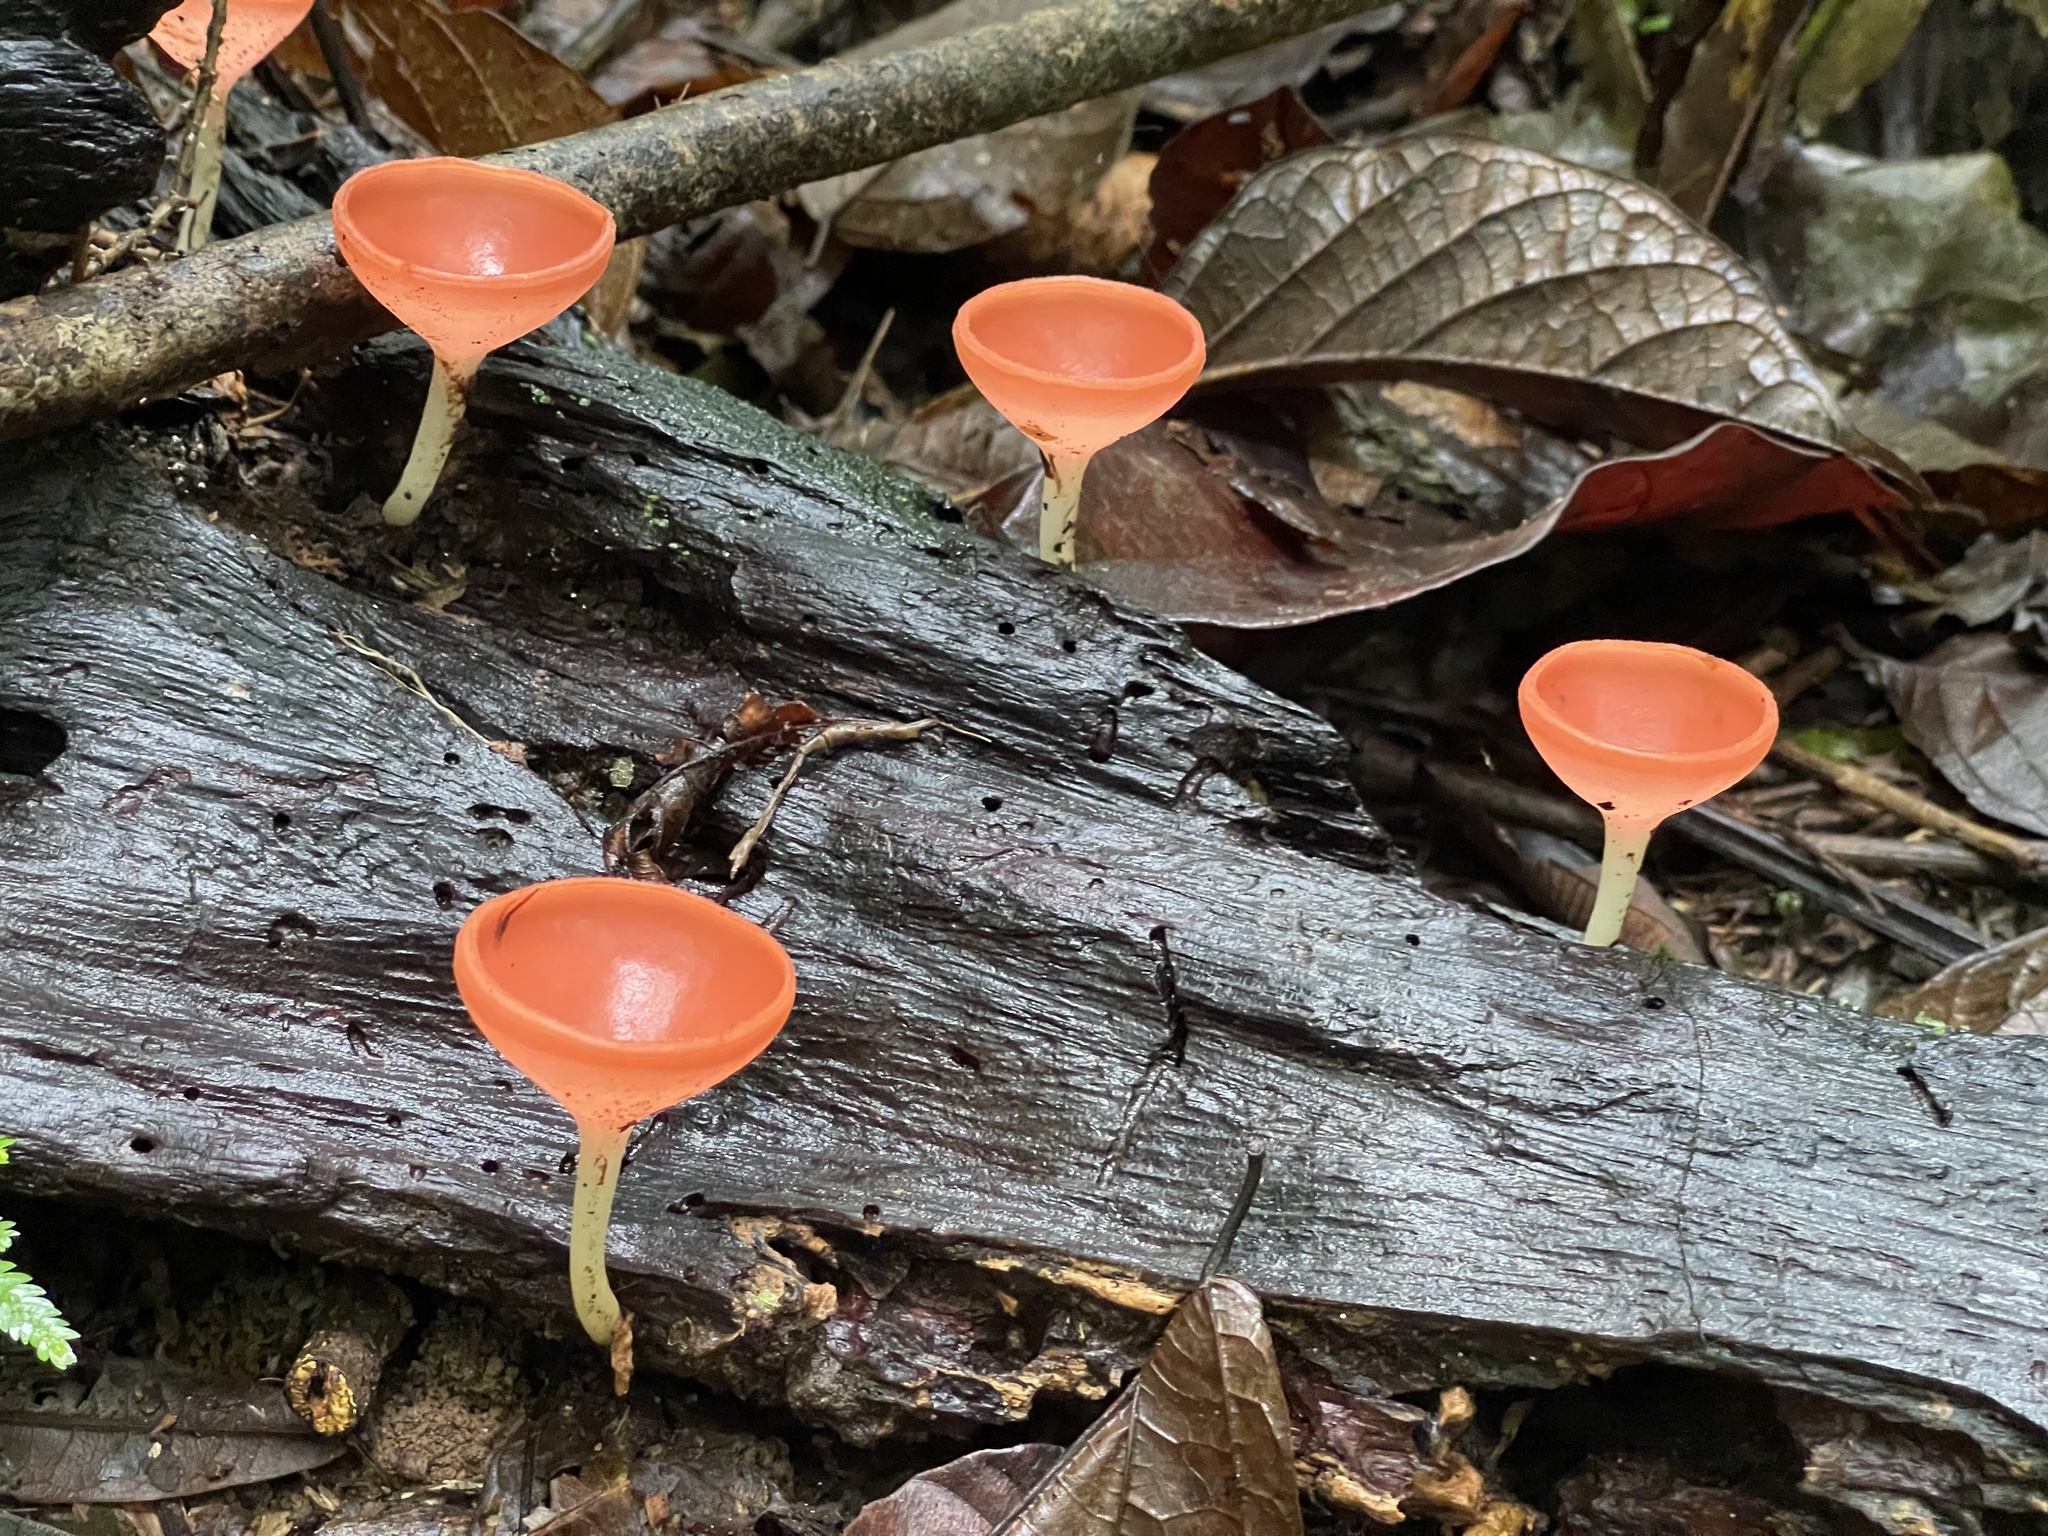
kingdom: Fungi
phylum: Ascomycota
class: Pezizomycetes
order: Pezizales
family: Sarcoscyphaceae
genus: Cookeina
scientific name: Cookeina speciosa
